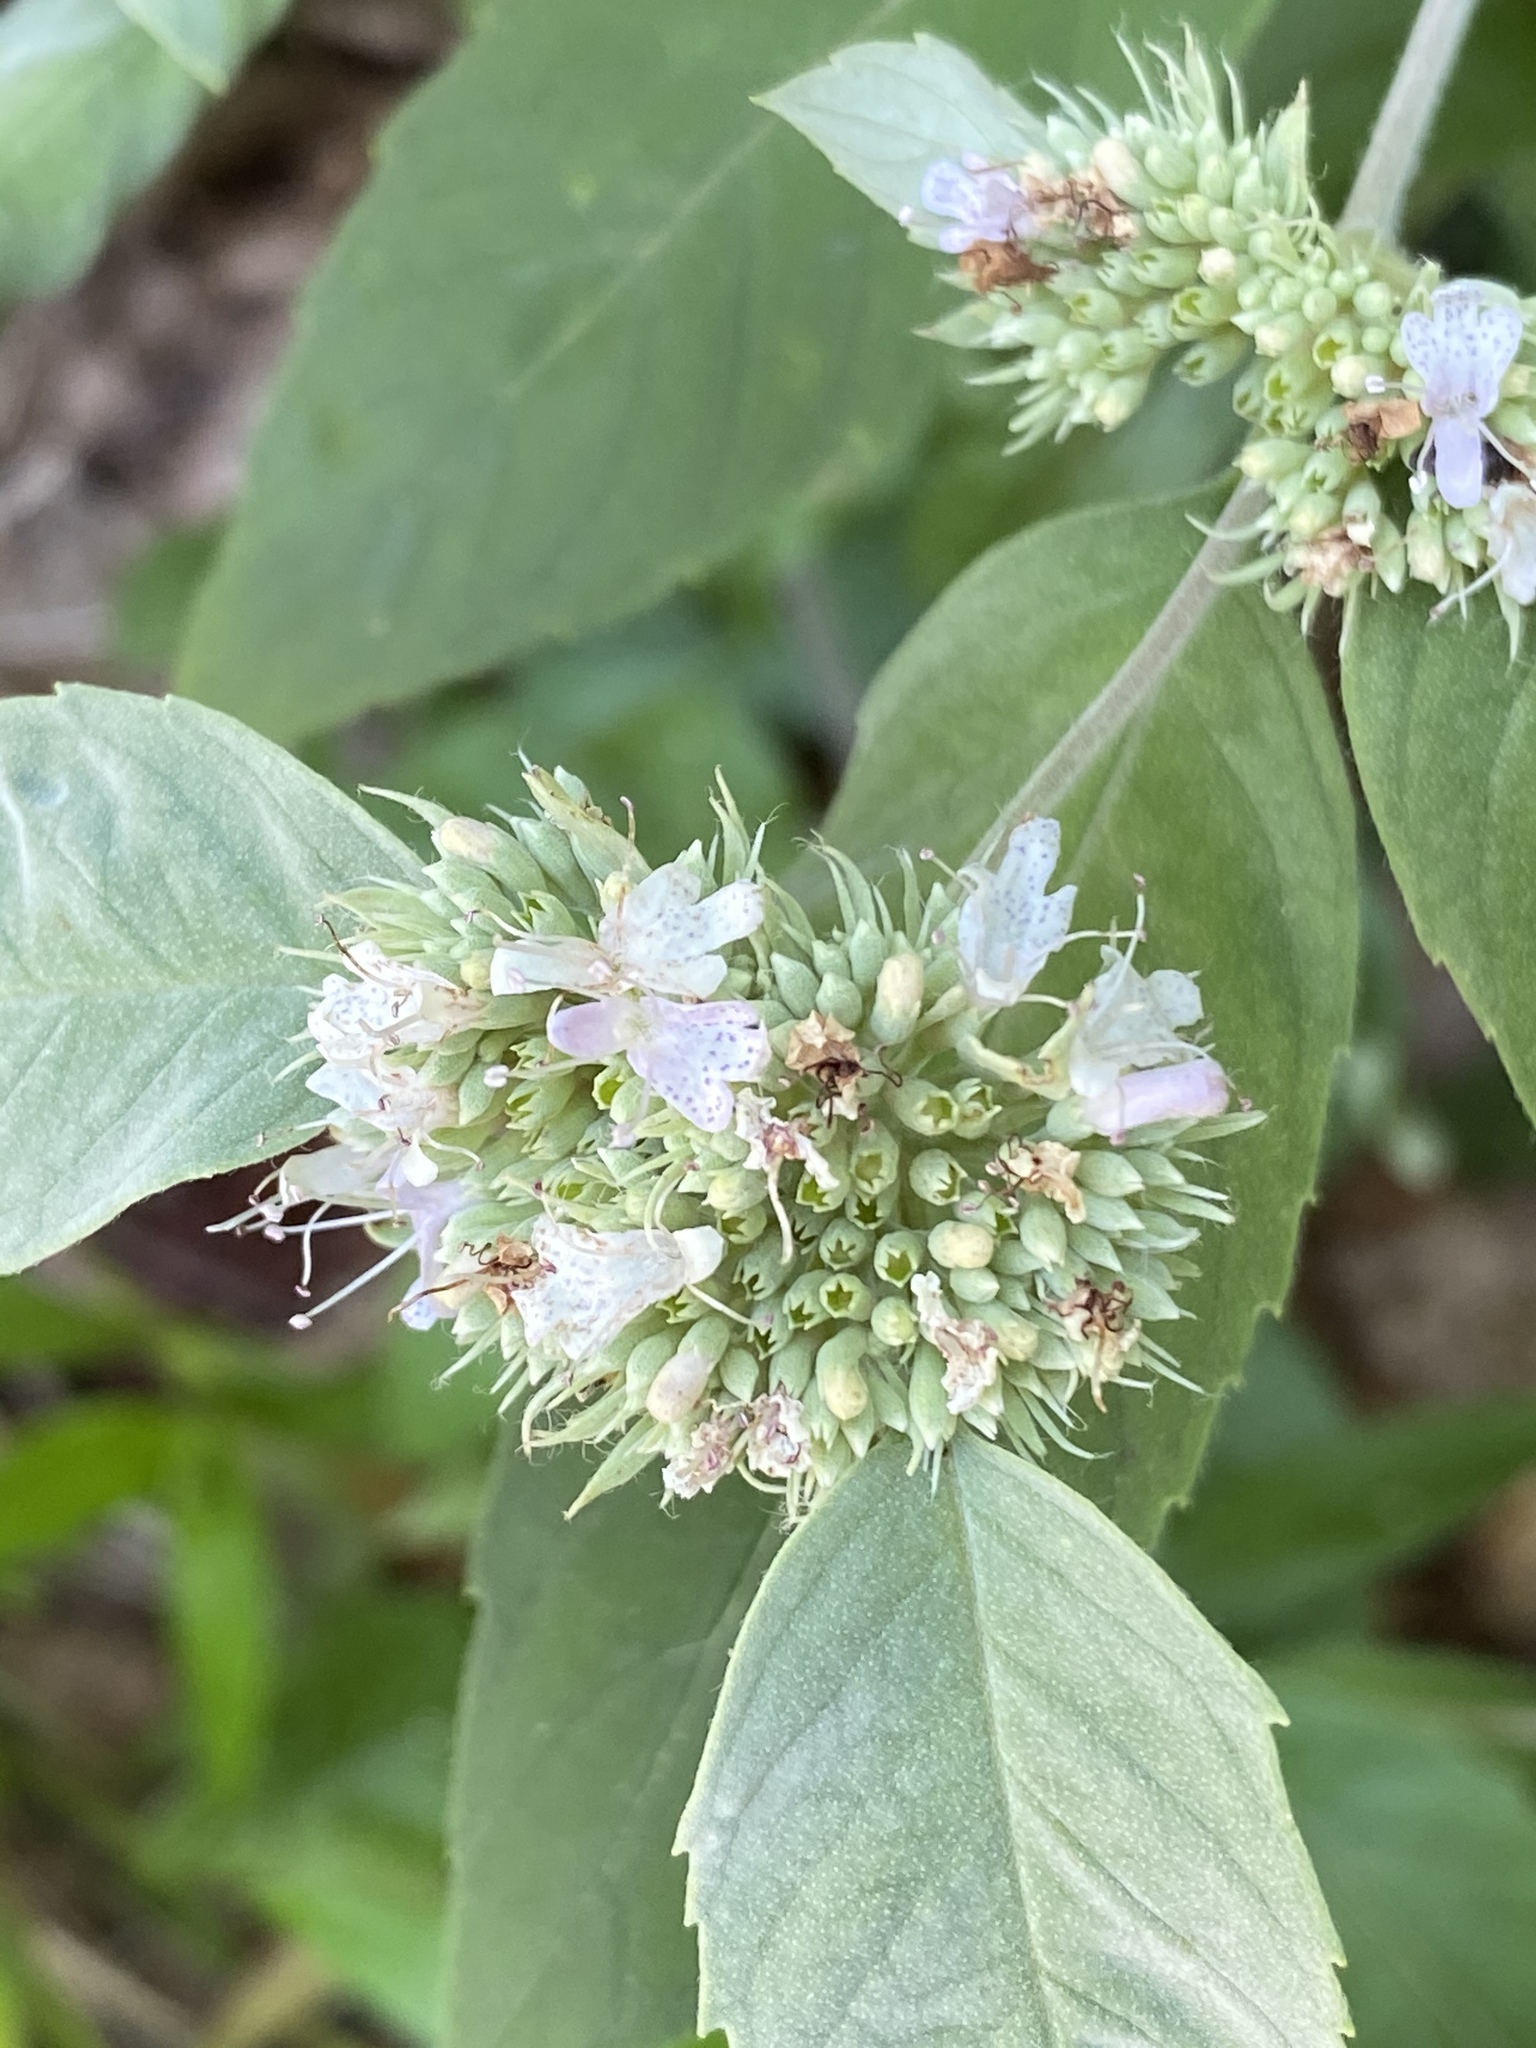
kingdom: Plantae
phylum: Tracheophyta
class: Magnoliopsida
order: Lamiales
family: Lamiaceae
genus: Pycnanthemum
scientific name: Pycnanthemum incanum
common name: Hoary mountain-mint
